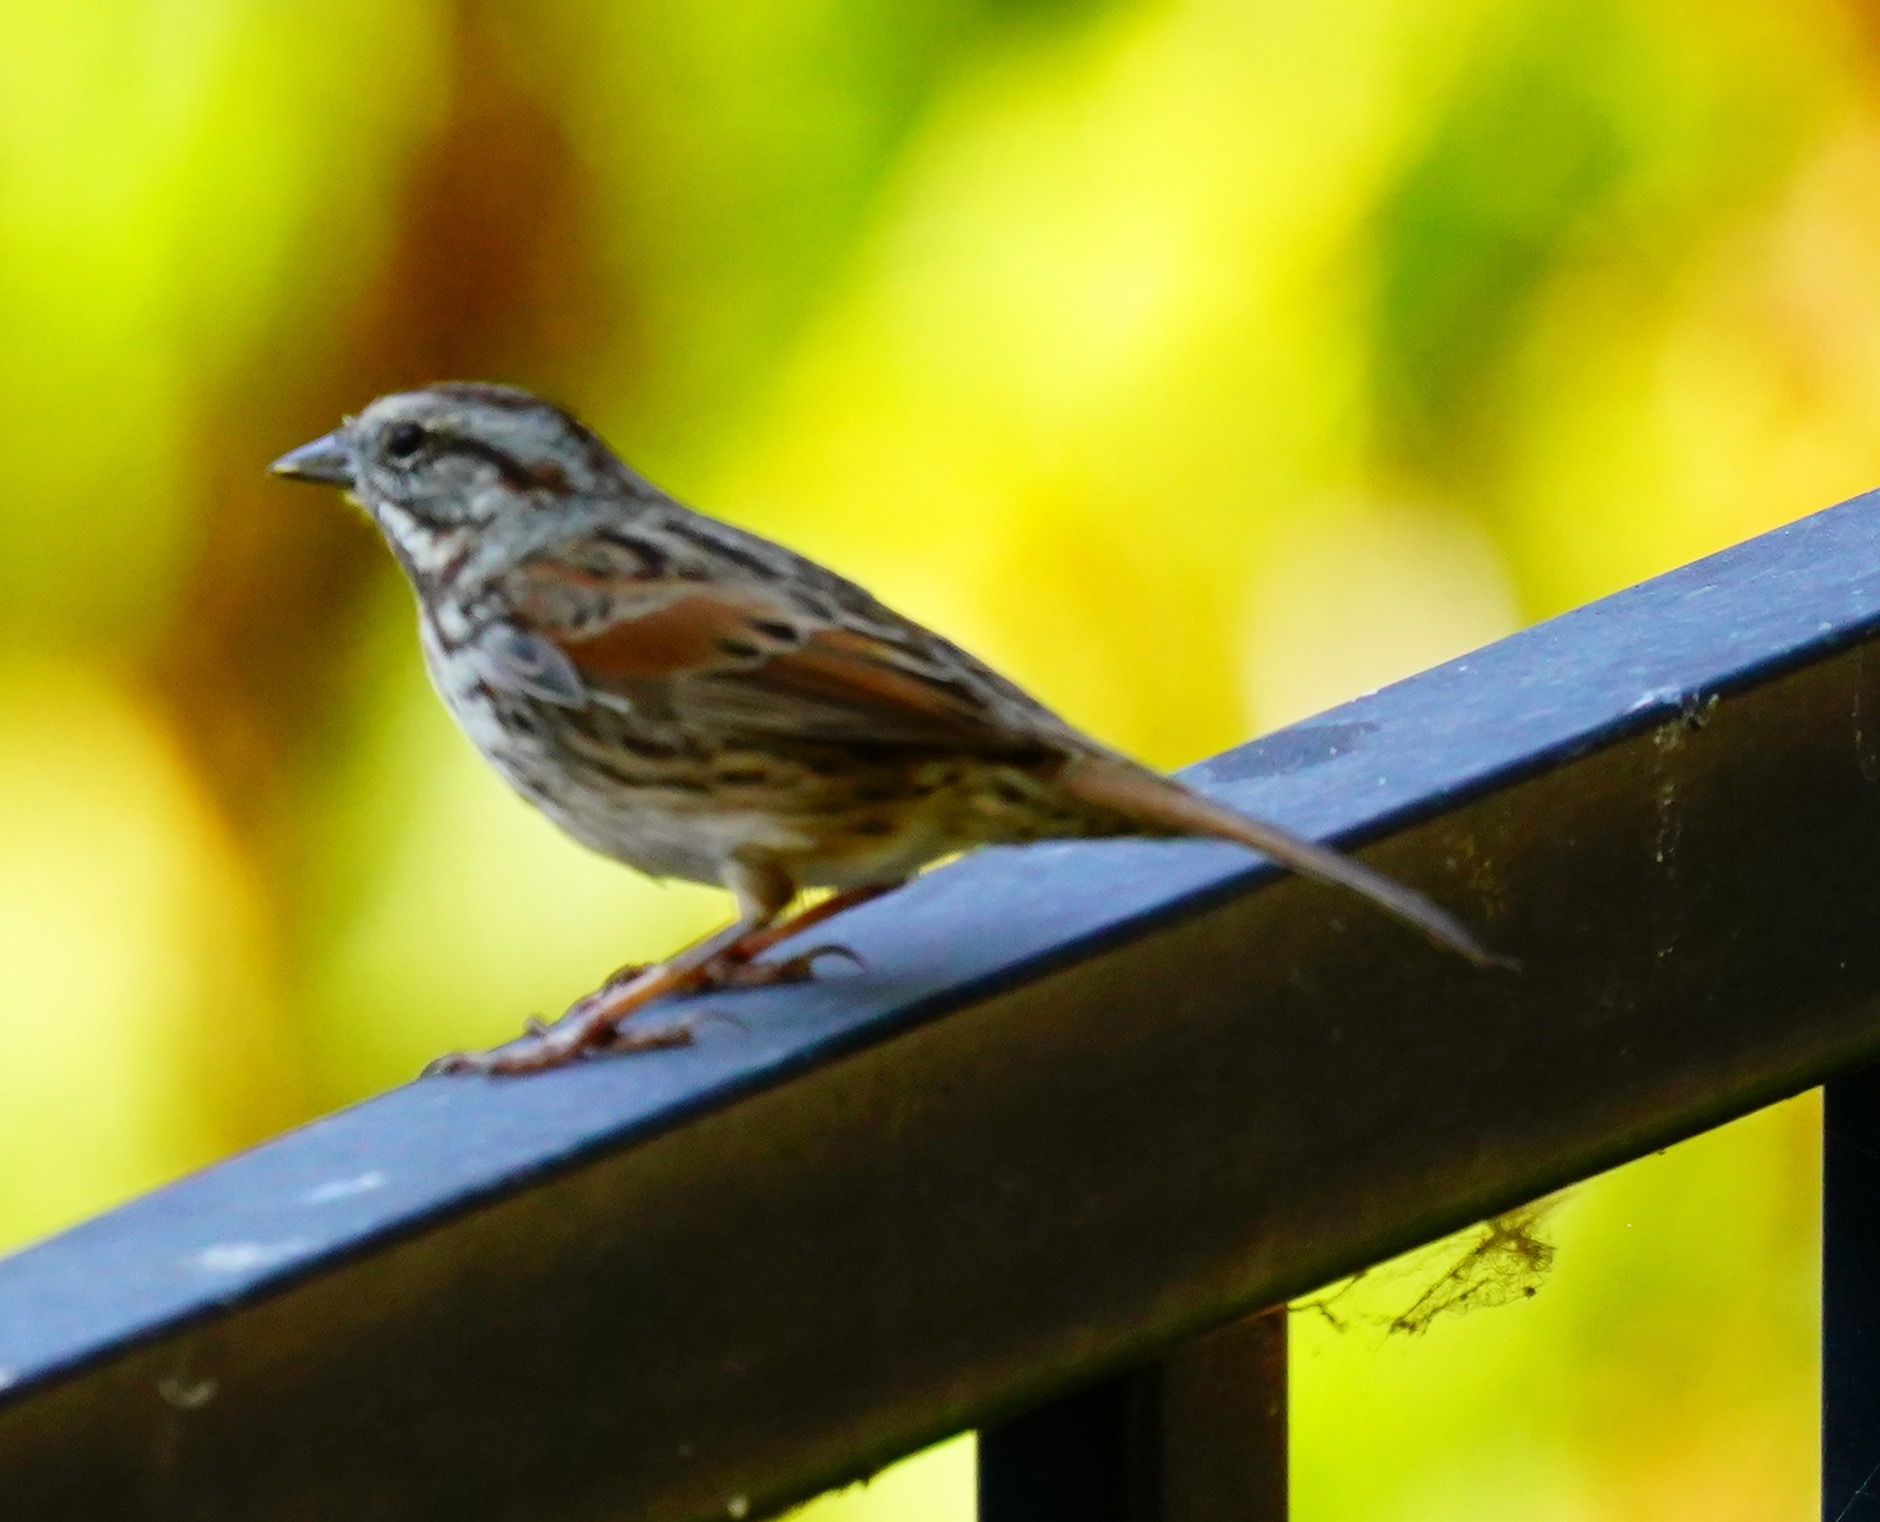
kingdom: Animalia
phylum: Chordata
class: Aves
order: Passeriformes
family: Passerellidae
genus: Melospiza
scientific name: Melospiza melodia
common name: Song sparrow
